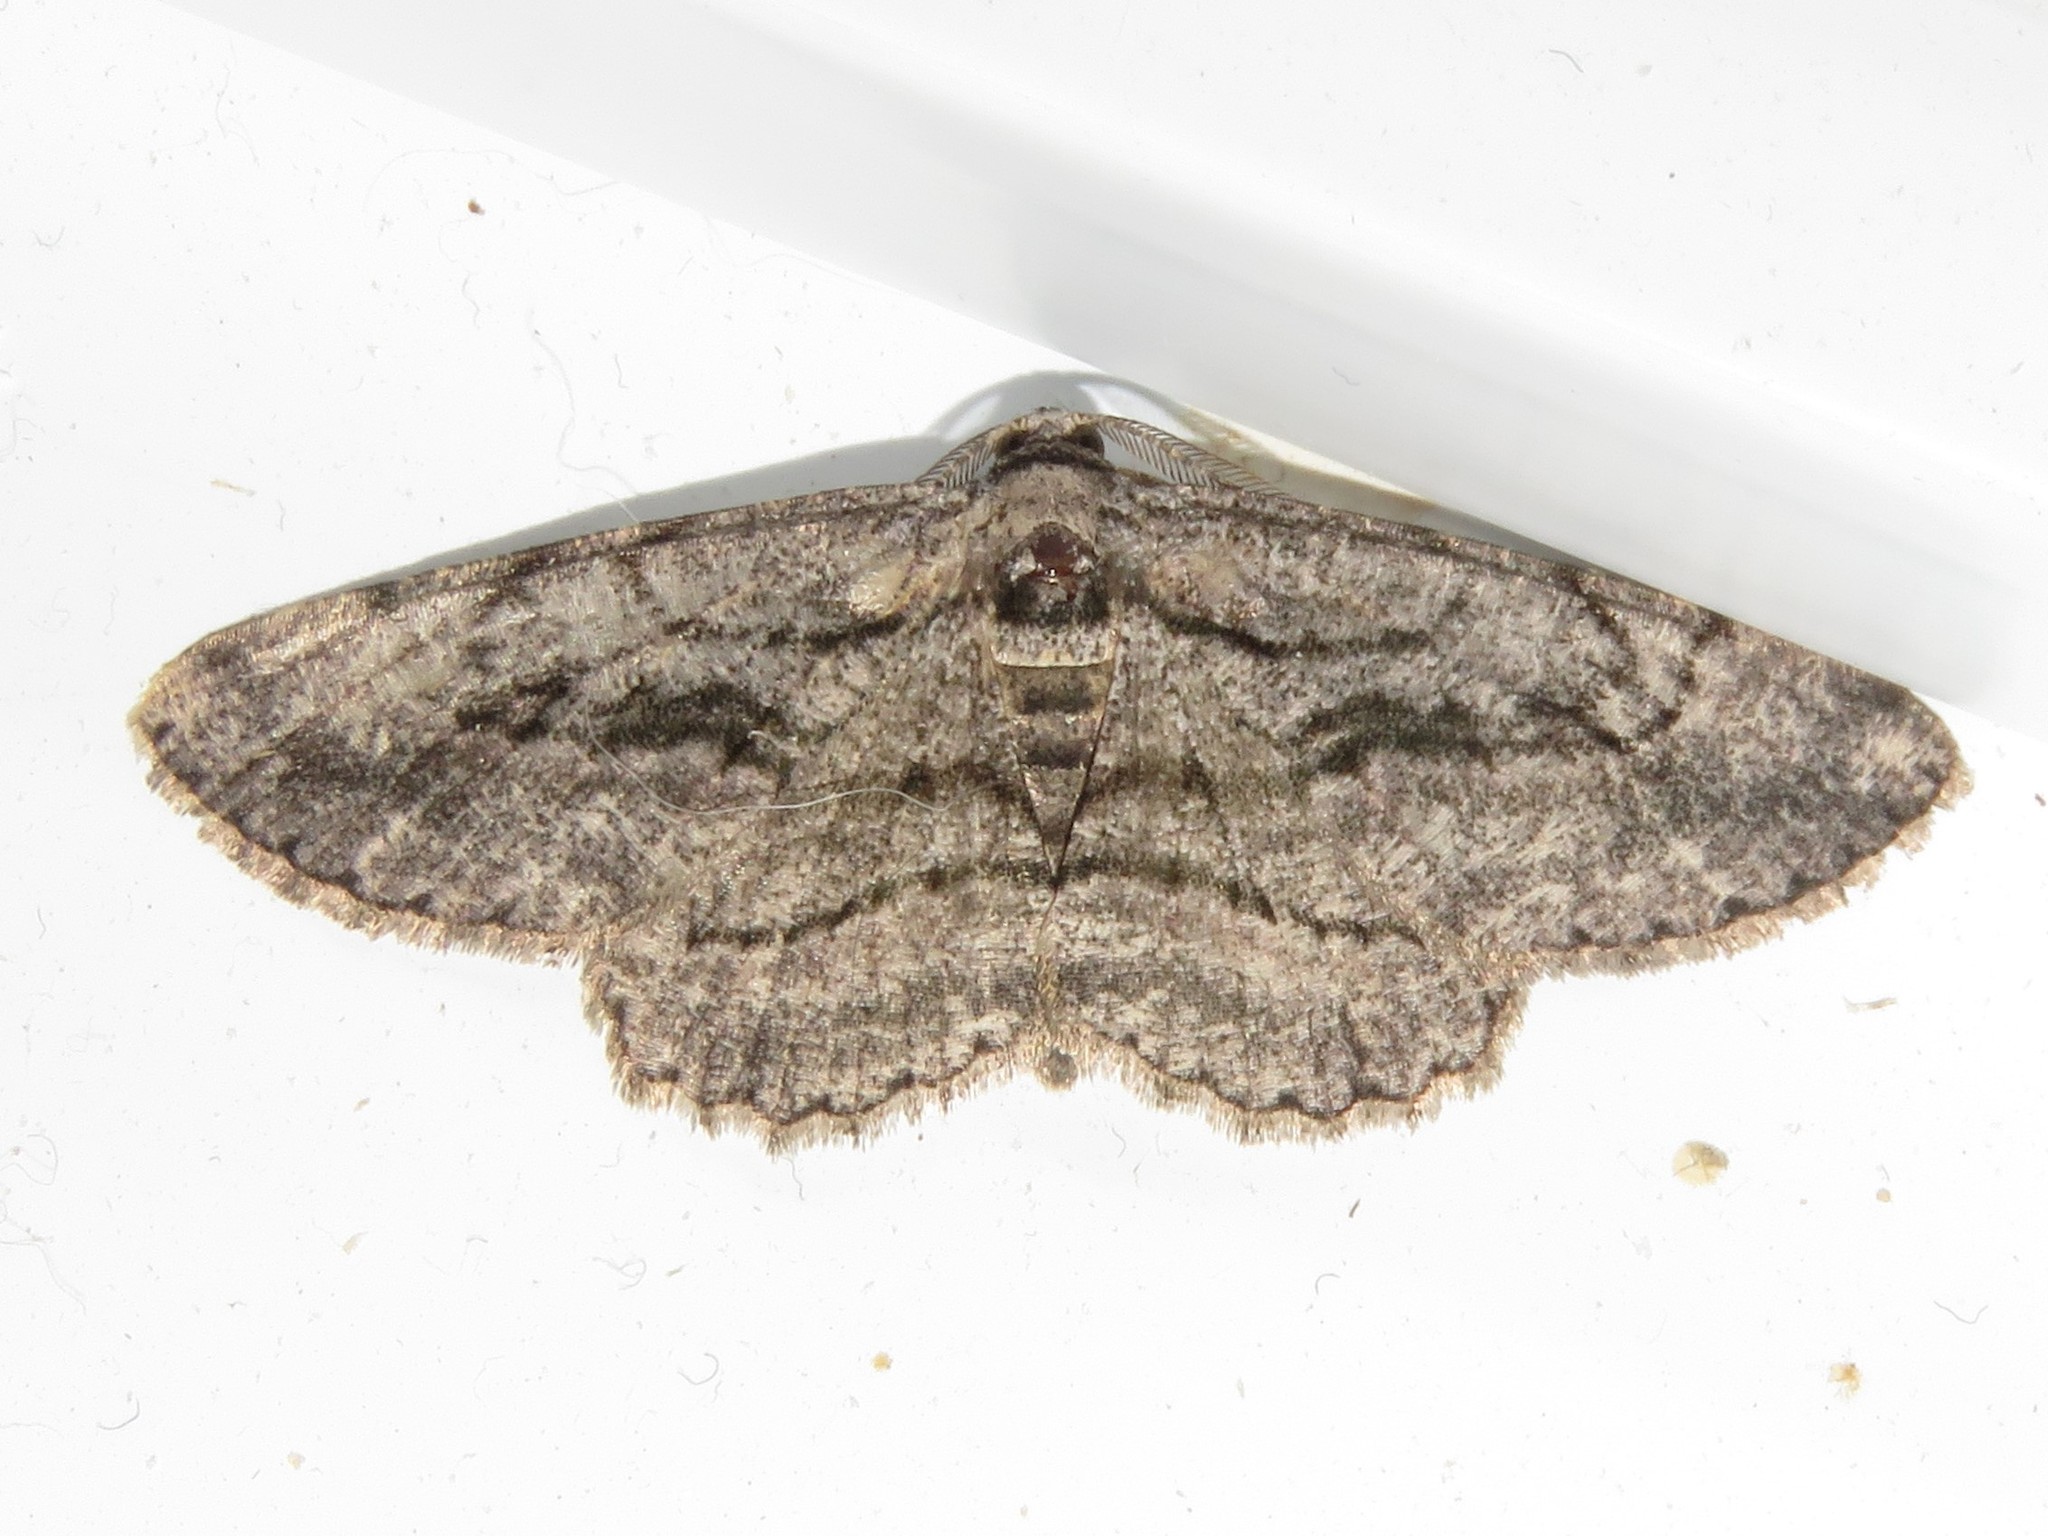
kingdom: Animalia
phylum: Arthropoda
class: Insecta
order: Lepidoptera
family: Geometridae
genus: Anavitrinella
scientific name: Anavitrinella pampinaria
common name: Common gray
